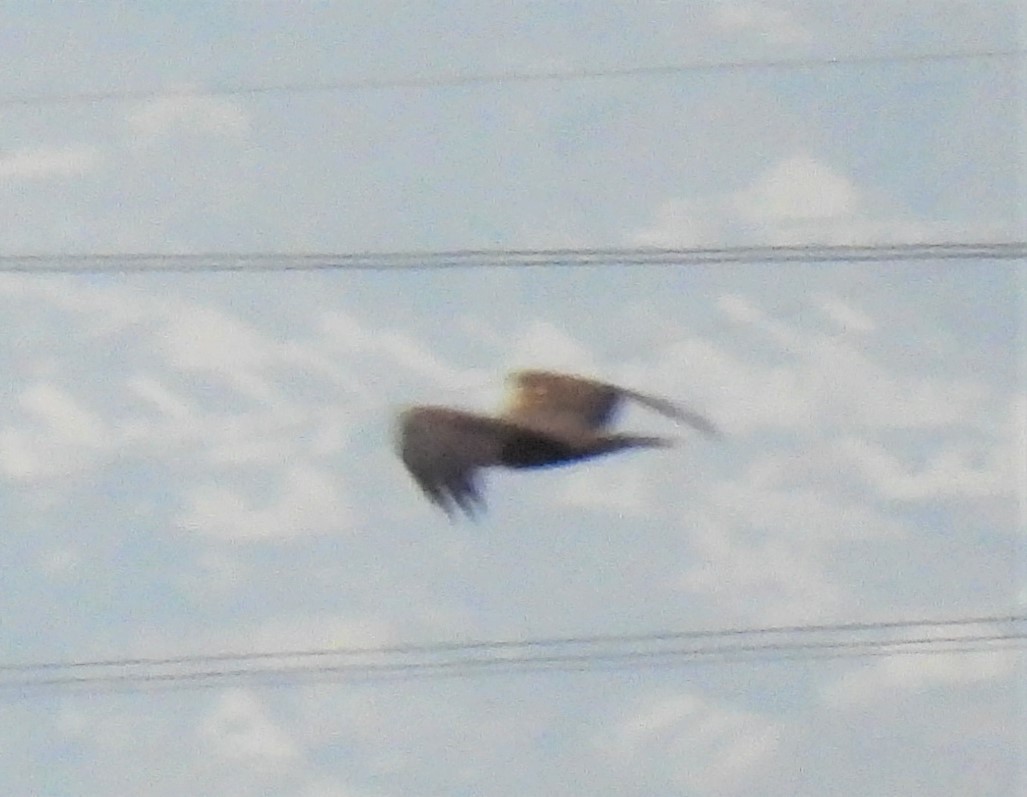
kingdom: Animalia
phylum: Chordata
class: Aves
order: Accipitriformes
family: Accipitridae
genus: Circus
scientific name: Circus aeruginosus
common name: Western marsh harrier
